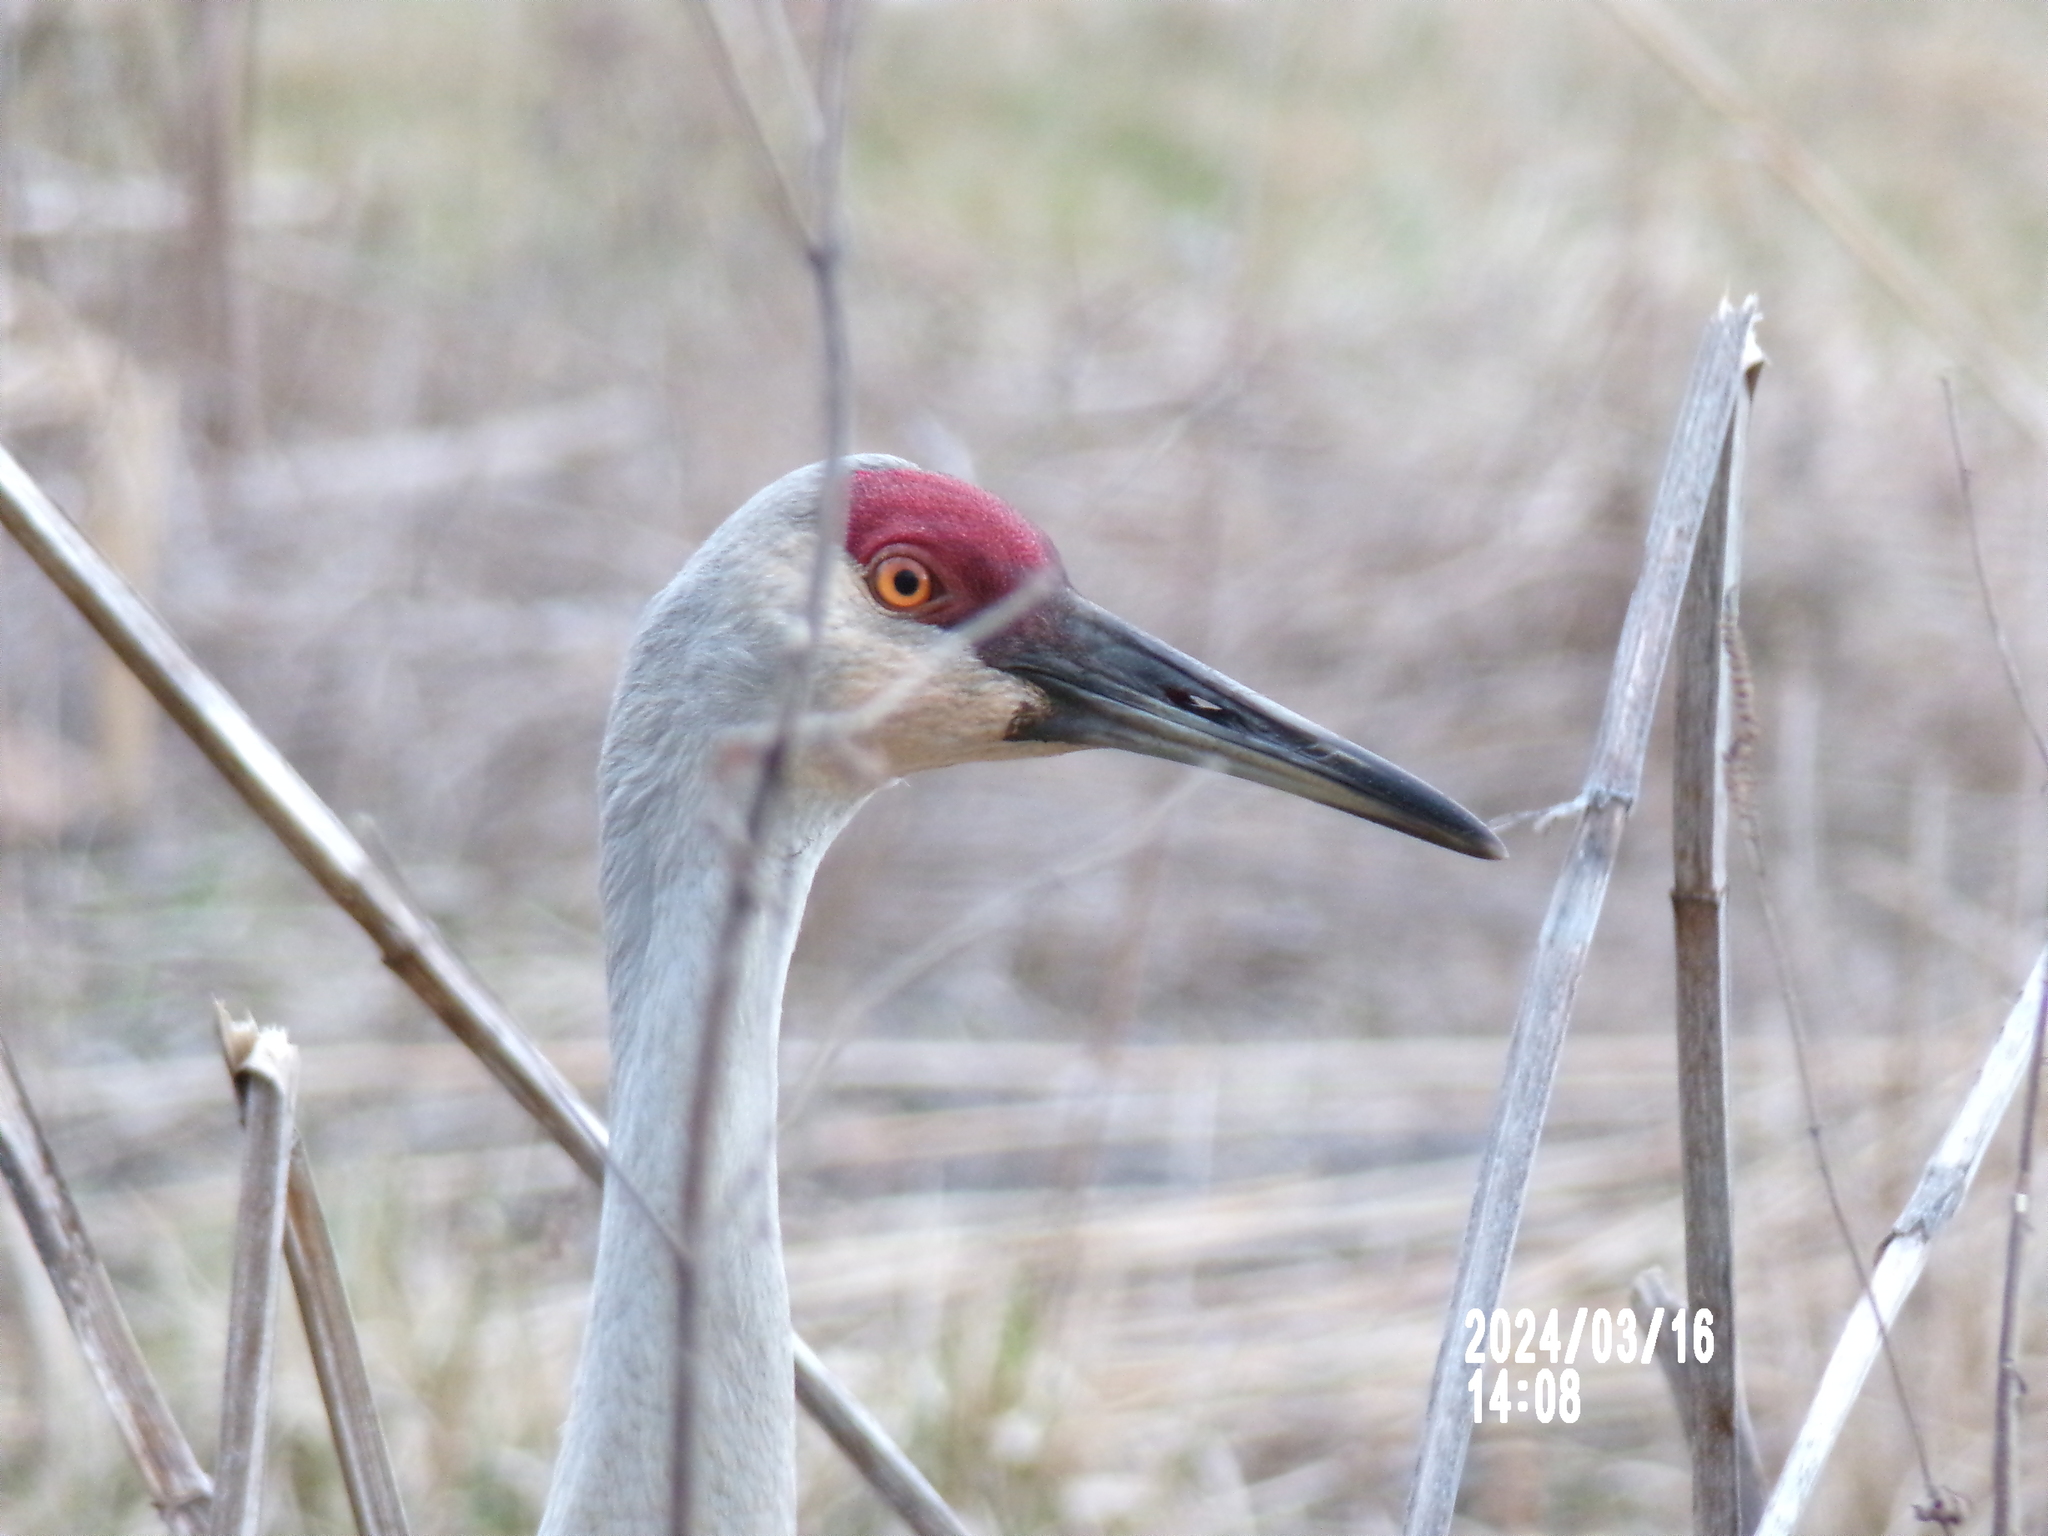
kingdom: Animalia
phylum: Chordata
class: Aves
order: Gruiformes
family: Gruidae
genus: Grus
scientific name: Grus canadensis
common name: Sandhill crane
